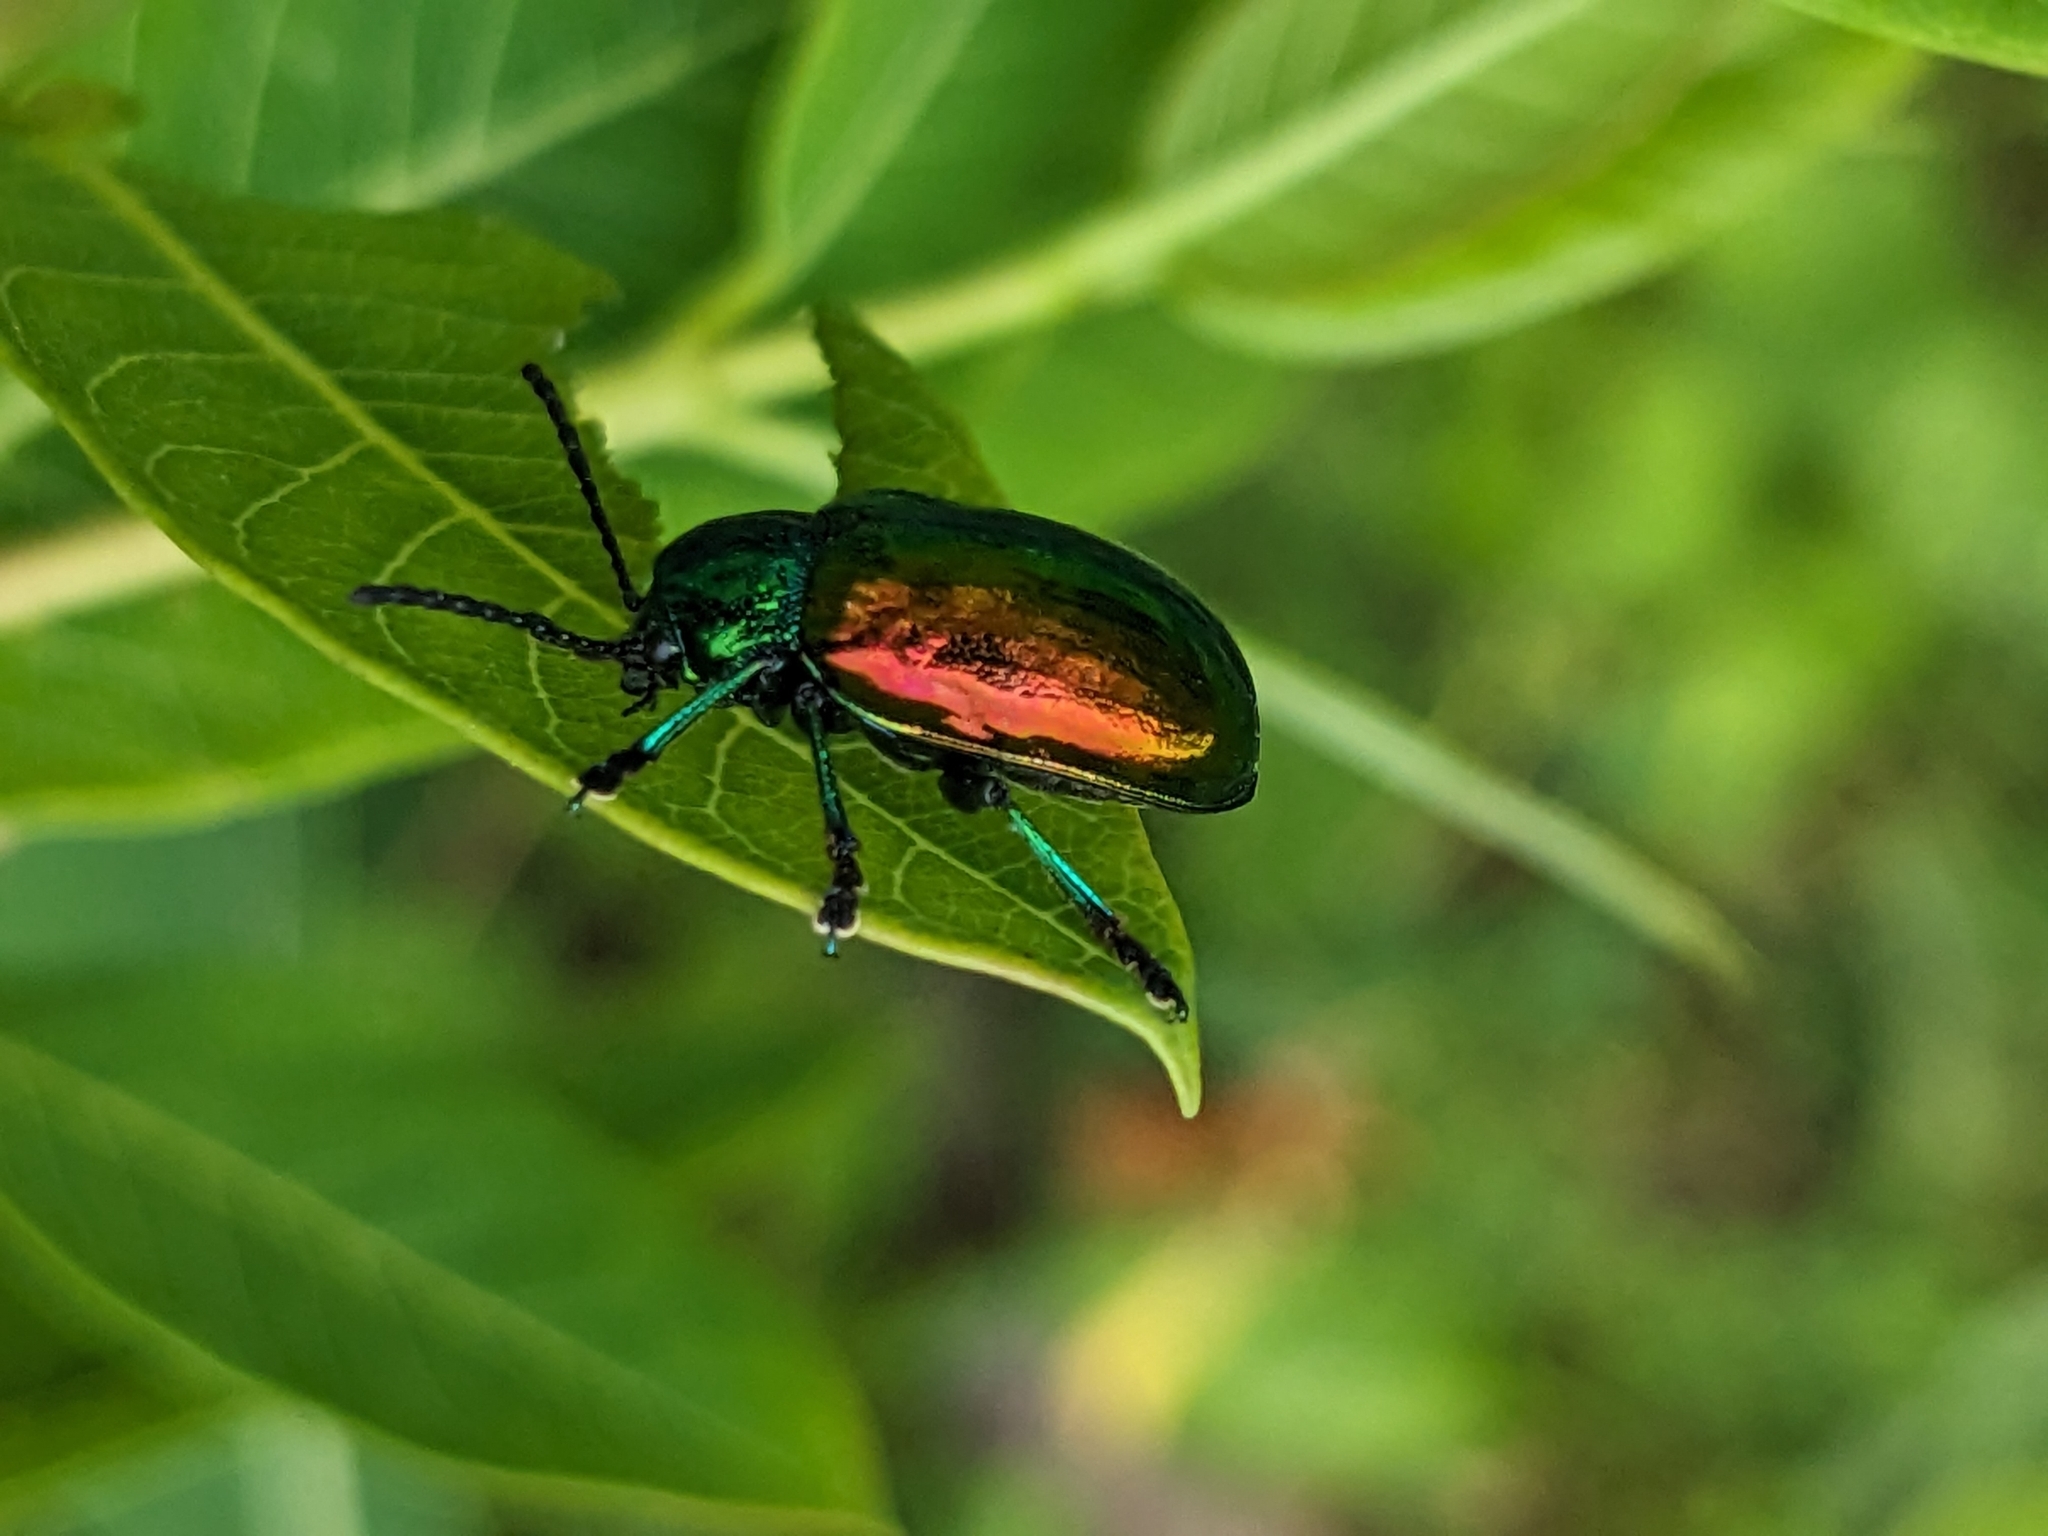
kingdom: Animalia
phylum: Arthropoda
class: Insecta
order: Coleoptera
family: Chrysomelidae
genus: Chrysochus
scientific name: Chrysochus auratus
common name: Dogbane leaf beetle
